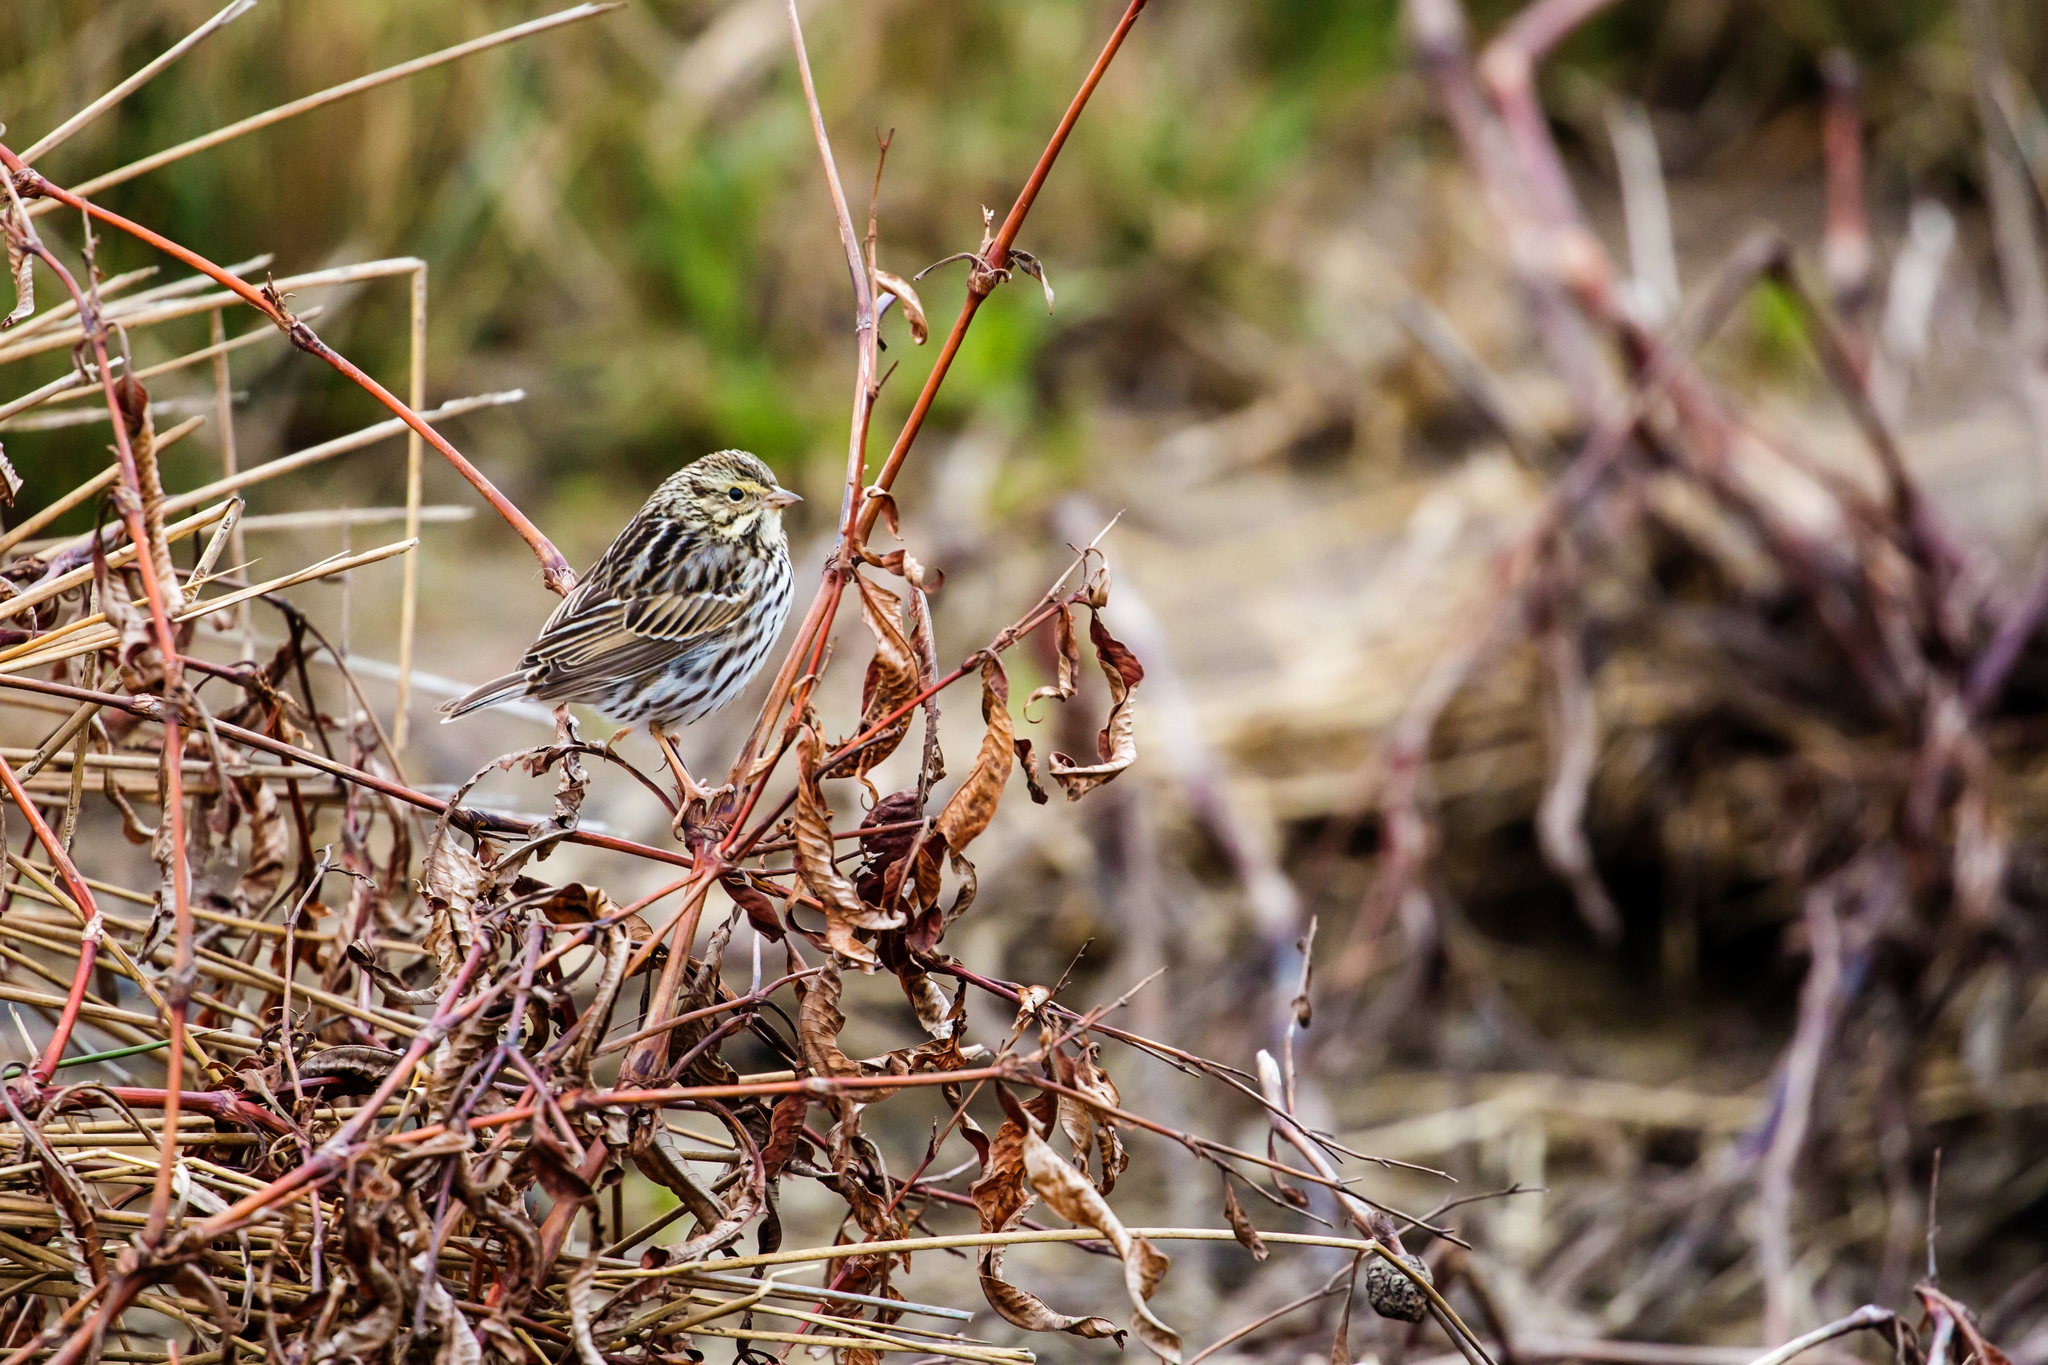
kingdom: Animalia
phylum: Chordata
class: Aves
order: Passeriformes
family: Passerellidae
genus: Passerculus
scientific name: Passerculus sandwichensis
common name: Savannah sparrow
